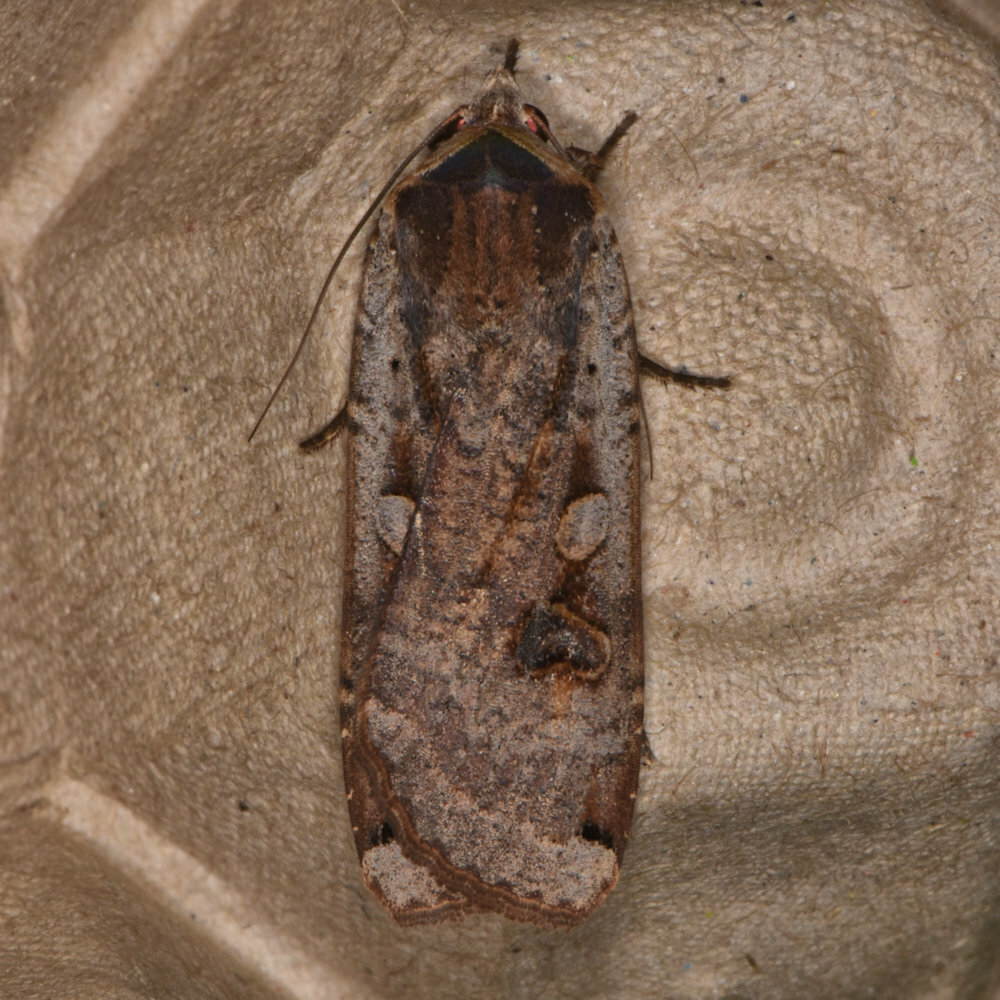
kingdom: Animalia
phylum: Arthropoda
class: Insecta
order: Lepidoptera
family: Noctuidae
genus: Noctua
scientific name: Noctua pronuba
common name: Large yellow underwing
